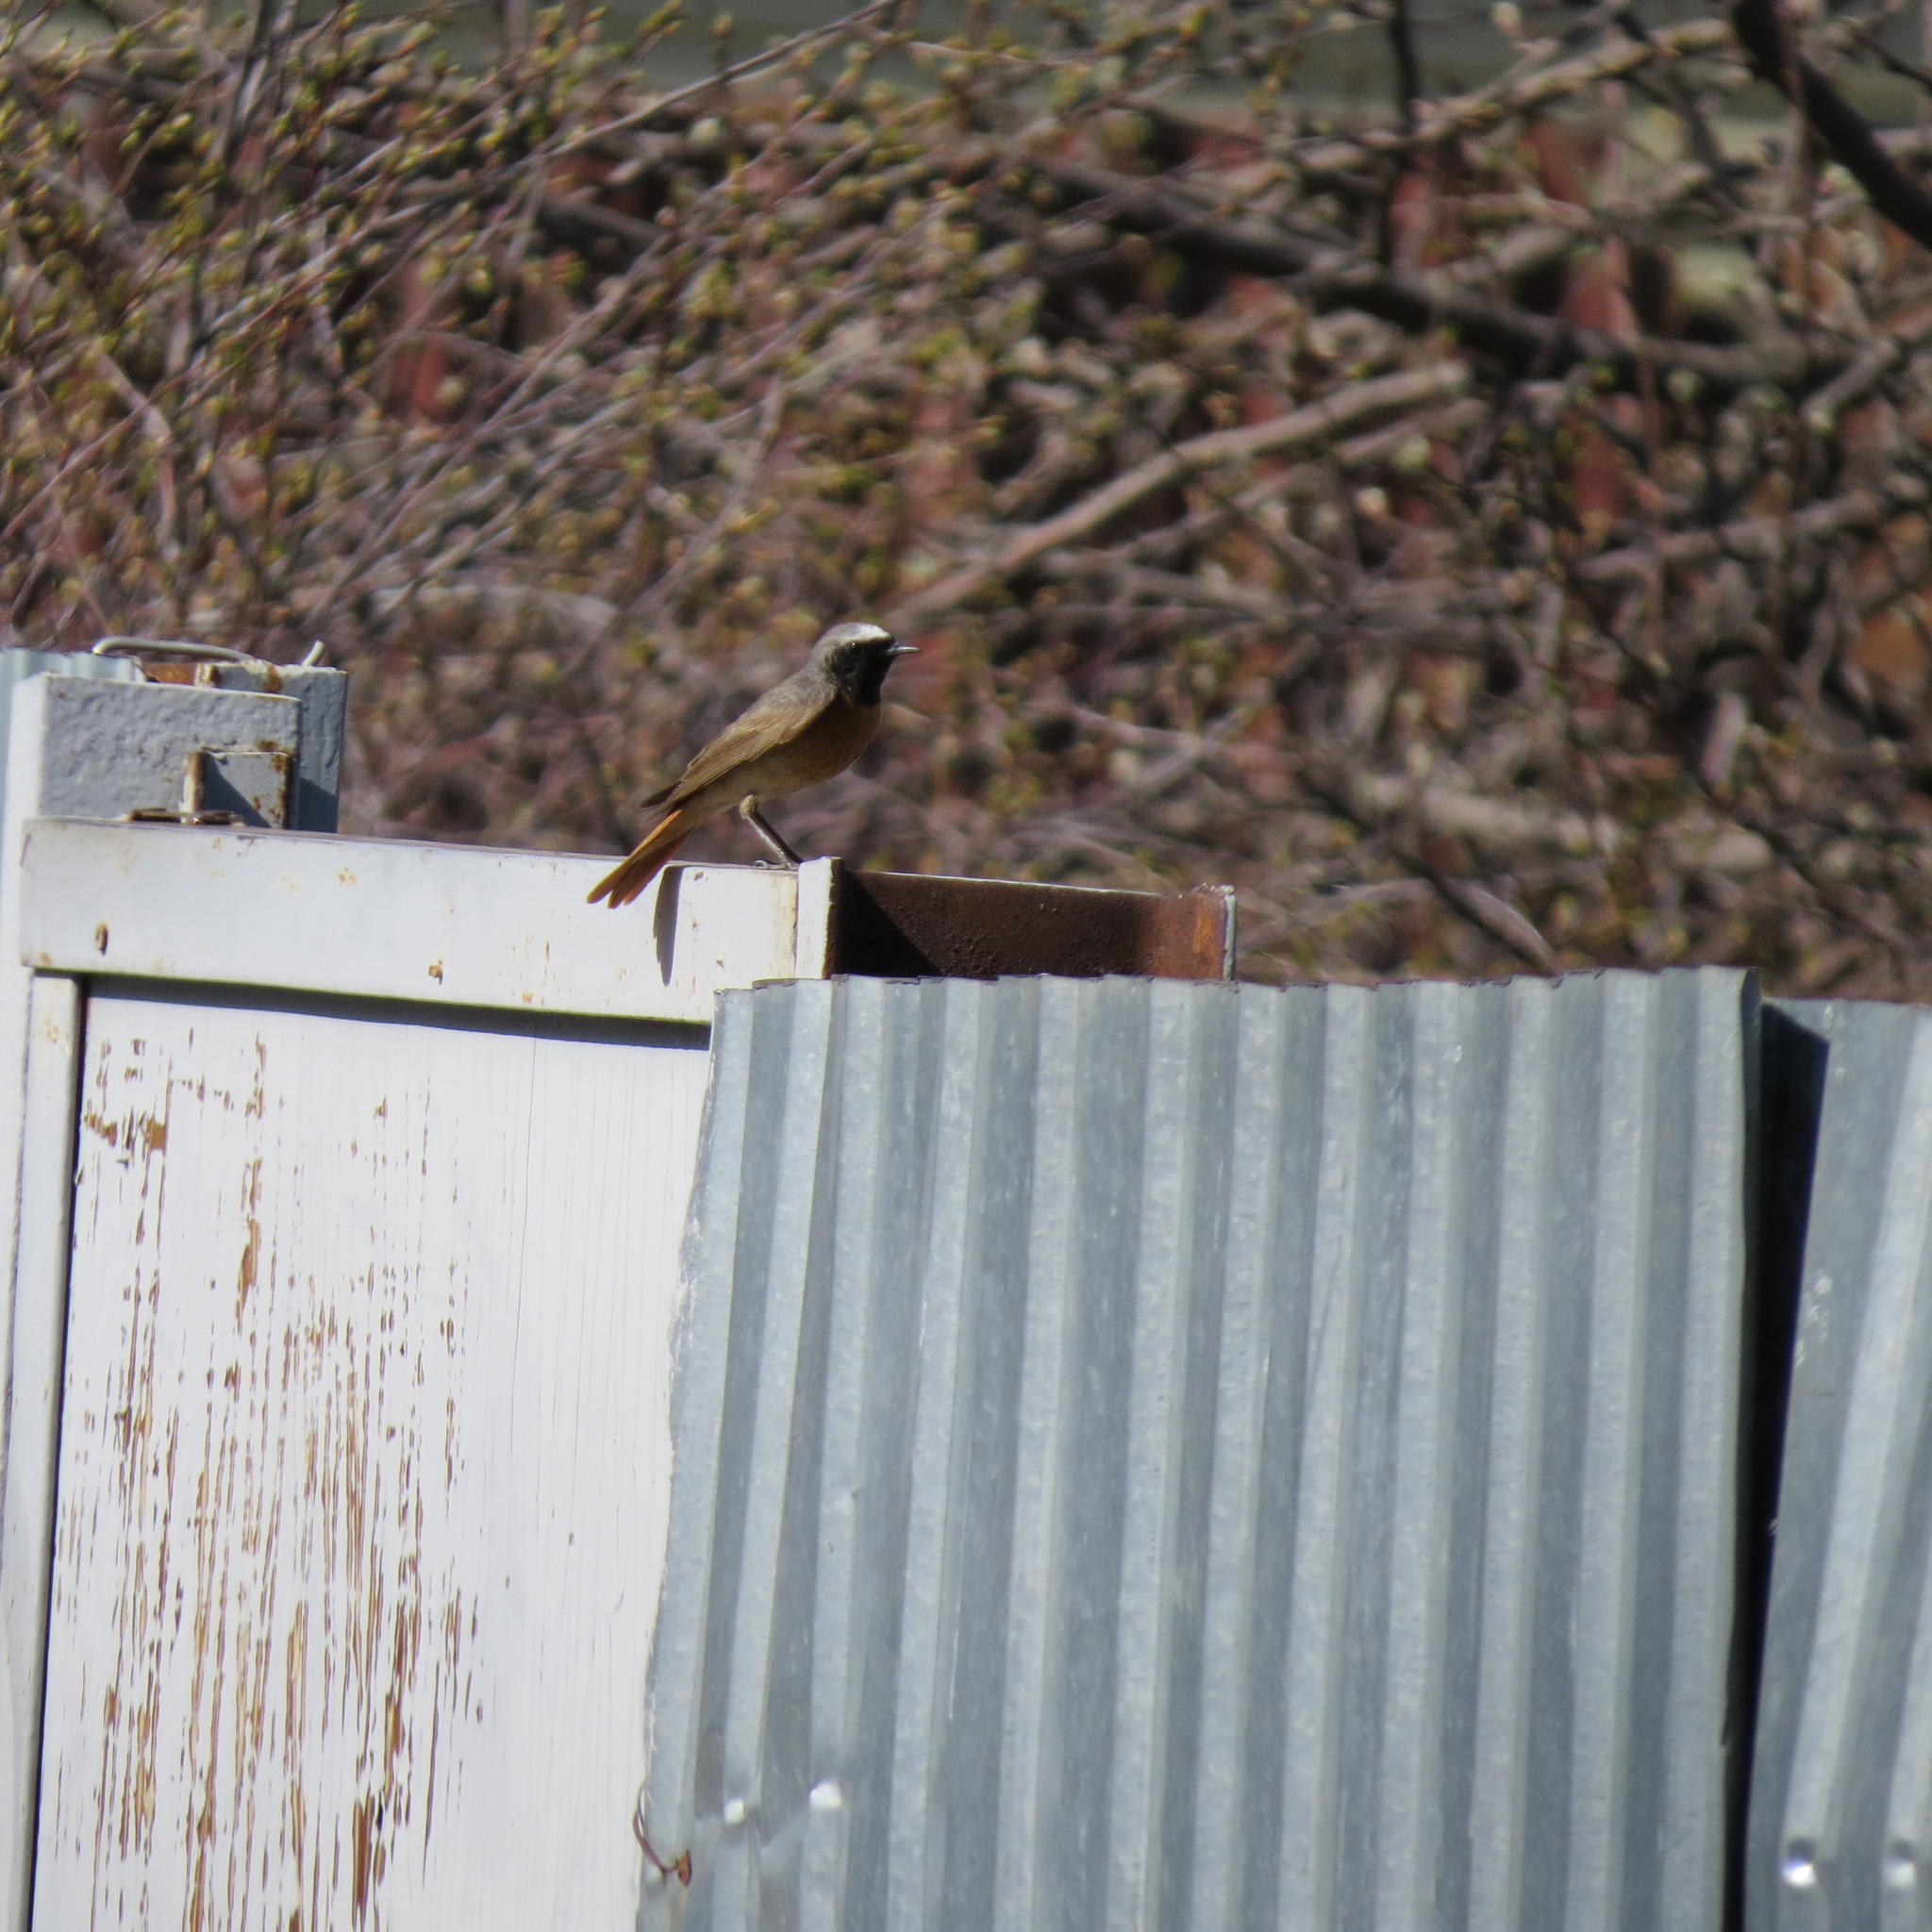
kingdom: Animalia
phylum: Chordata
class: Aves
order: Passeriformes
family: Muscicapidae
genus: Phoenicurus
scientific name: Phoenicurus phoenicurus
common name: Common redstart
